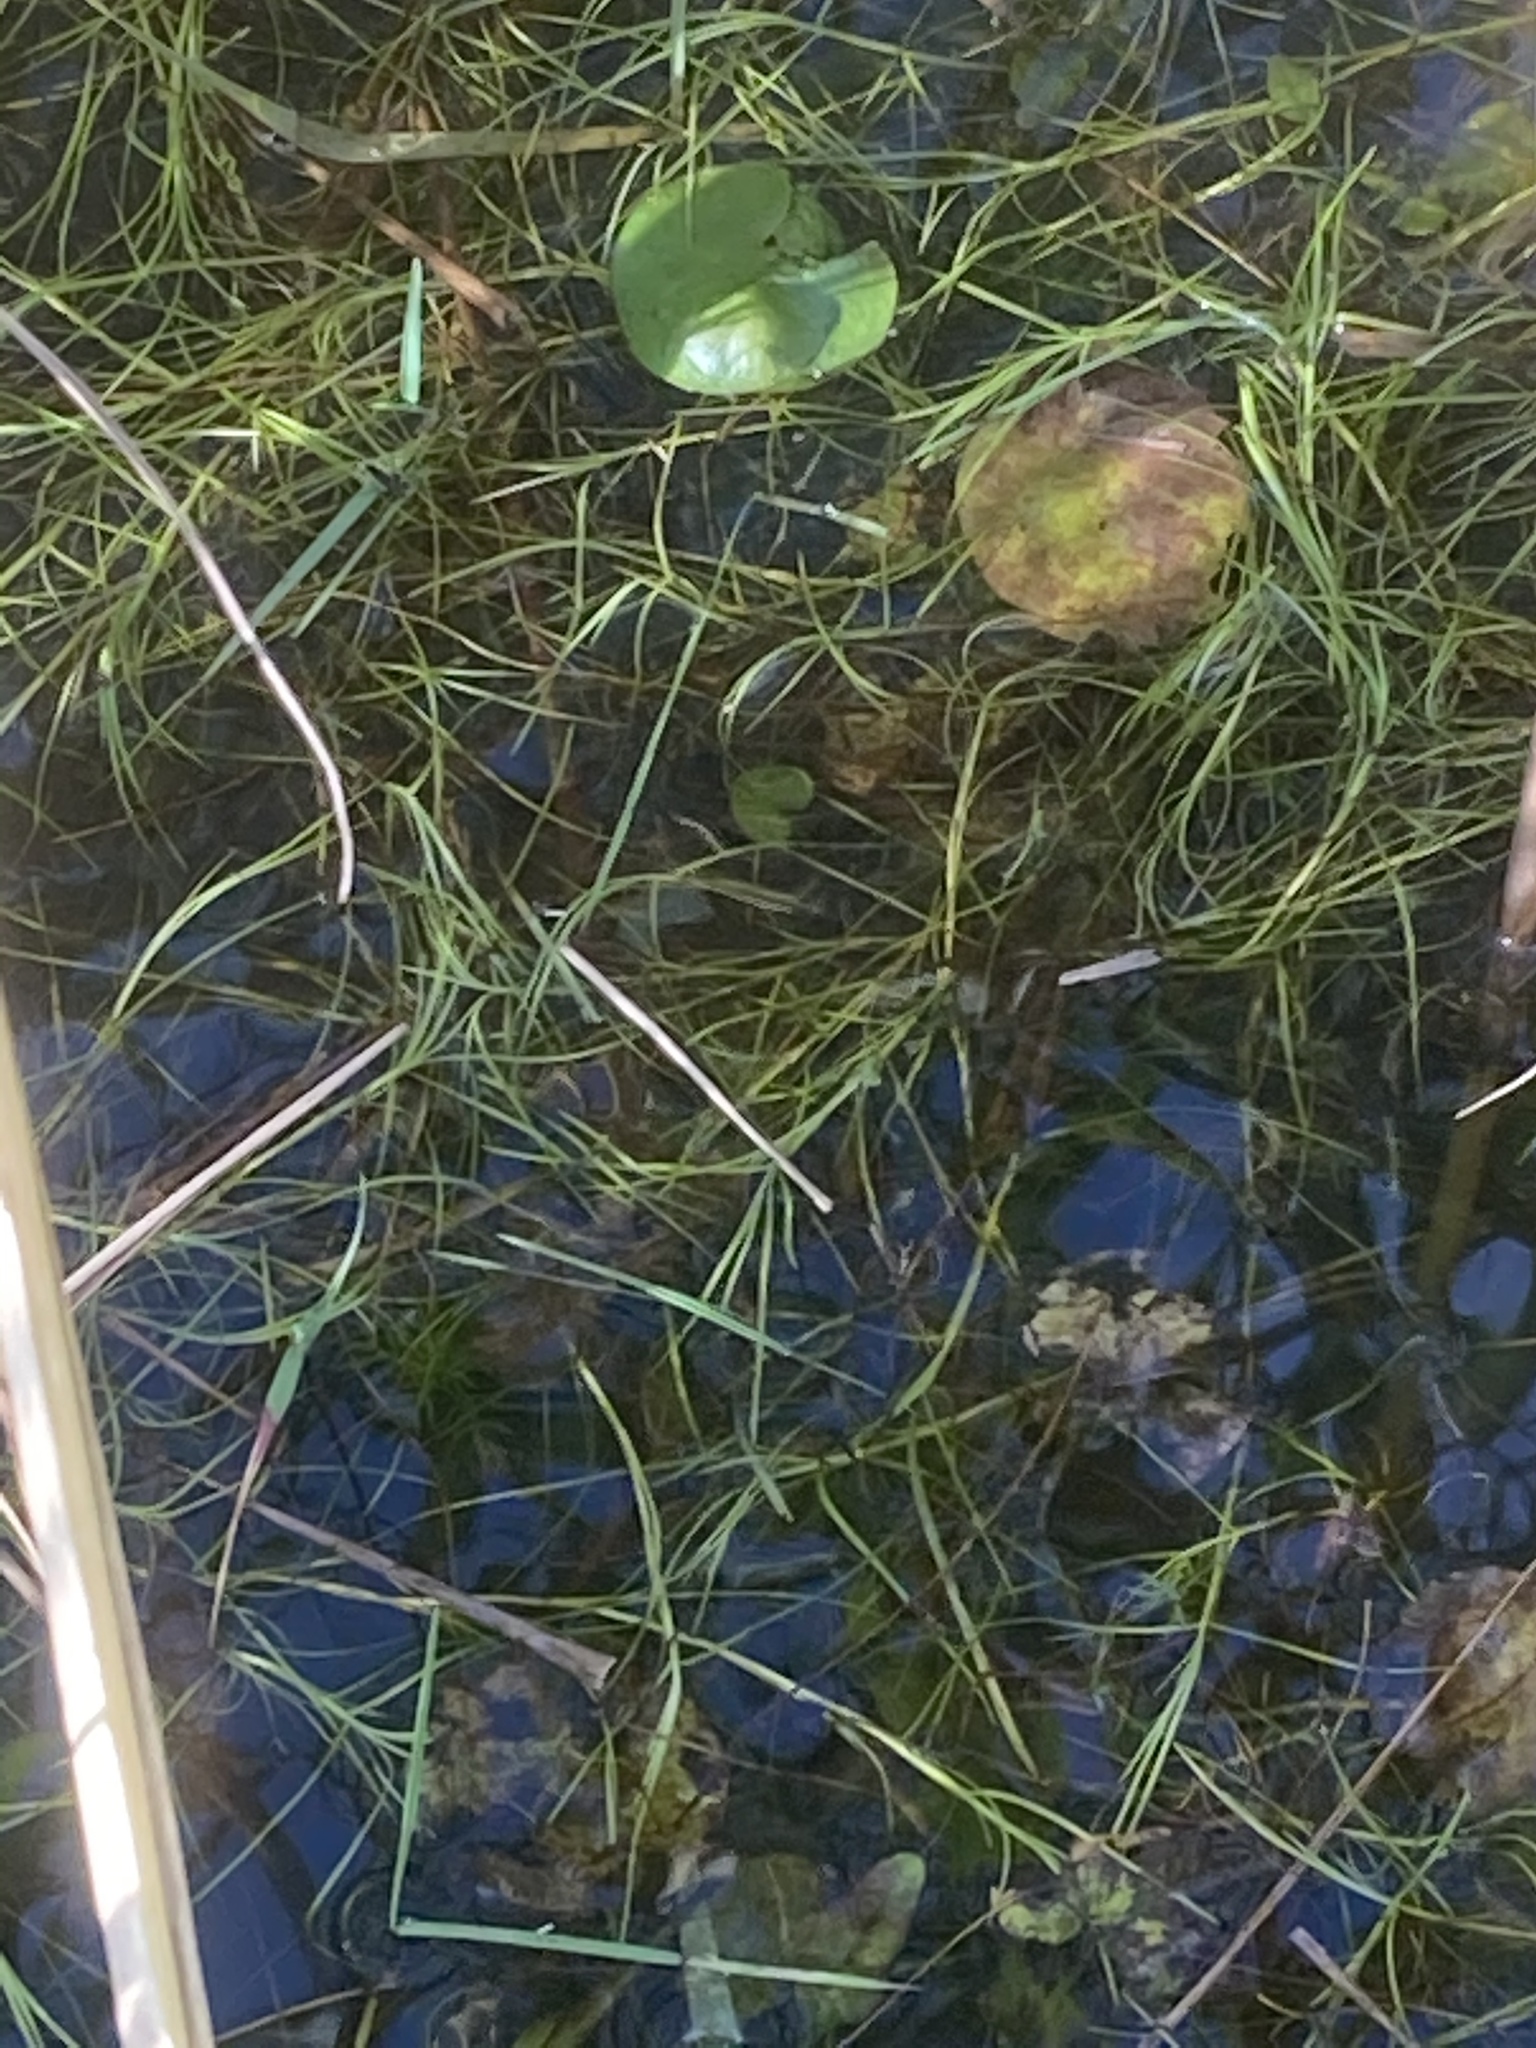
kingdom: Plantae
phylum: Tracheophyta
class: Liliopsida
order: Poales
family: Cyperaceae
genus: Isolepis
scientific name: Isolepis fluitans
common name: Floating club-rush
